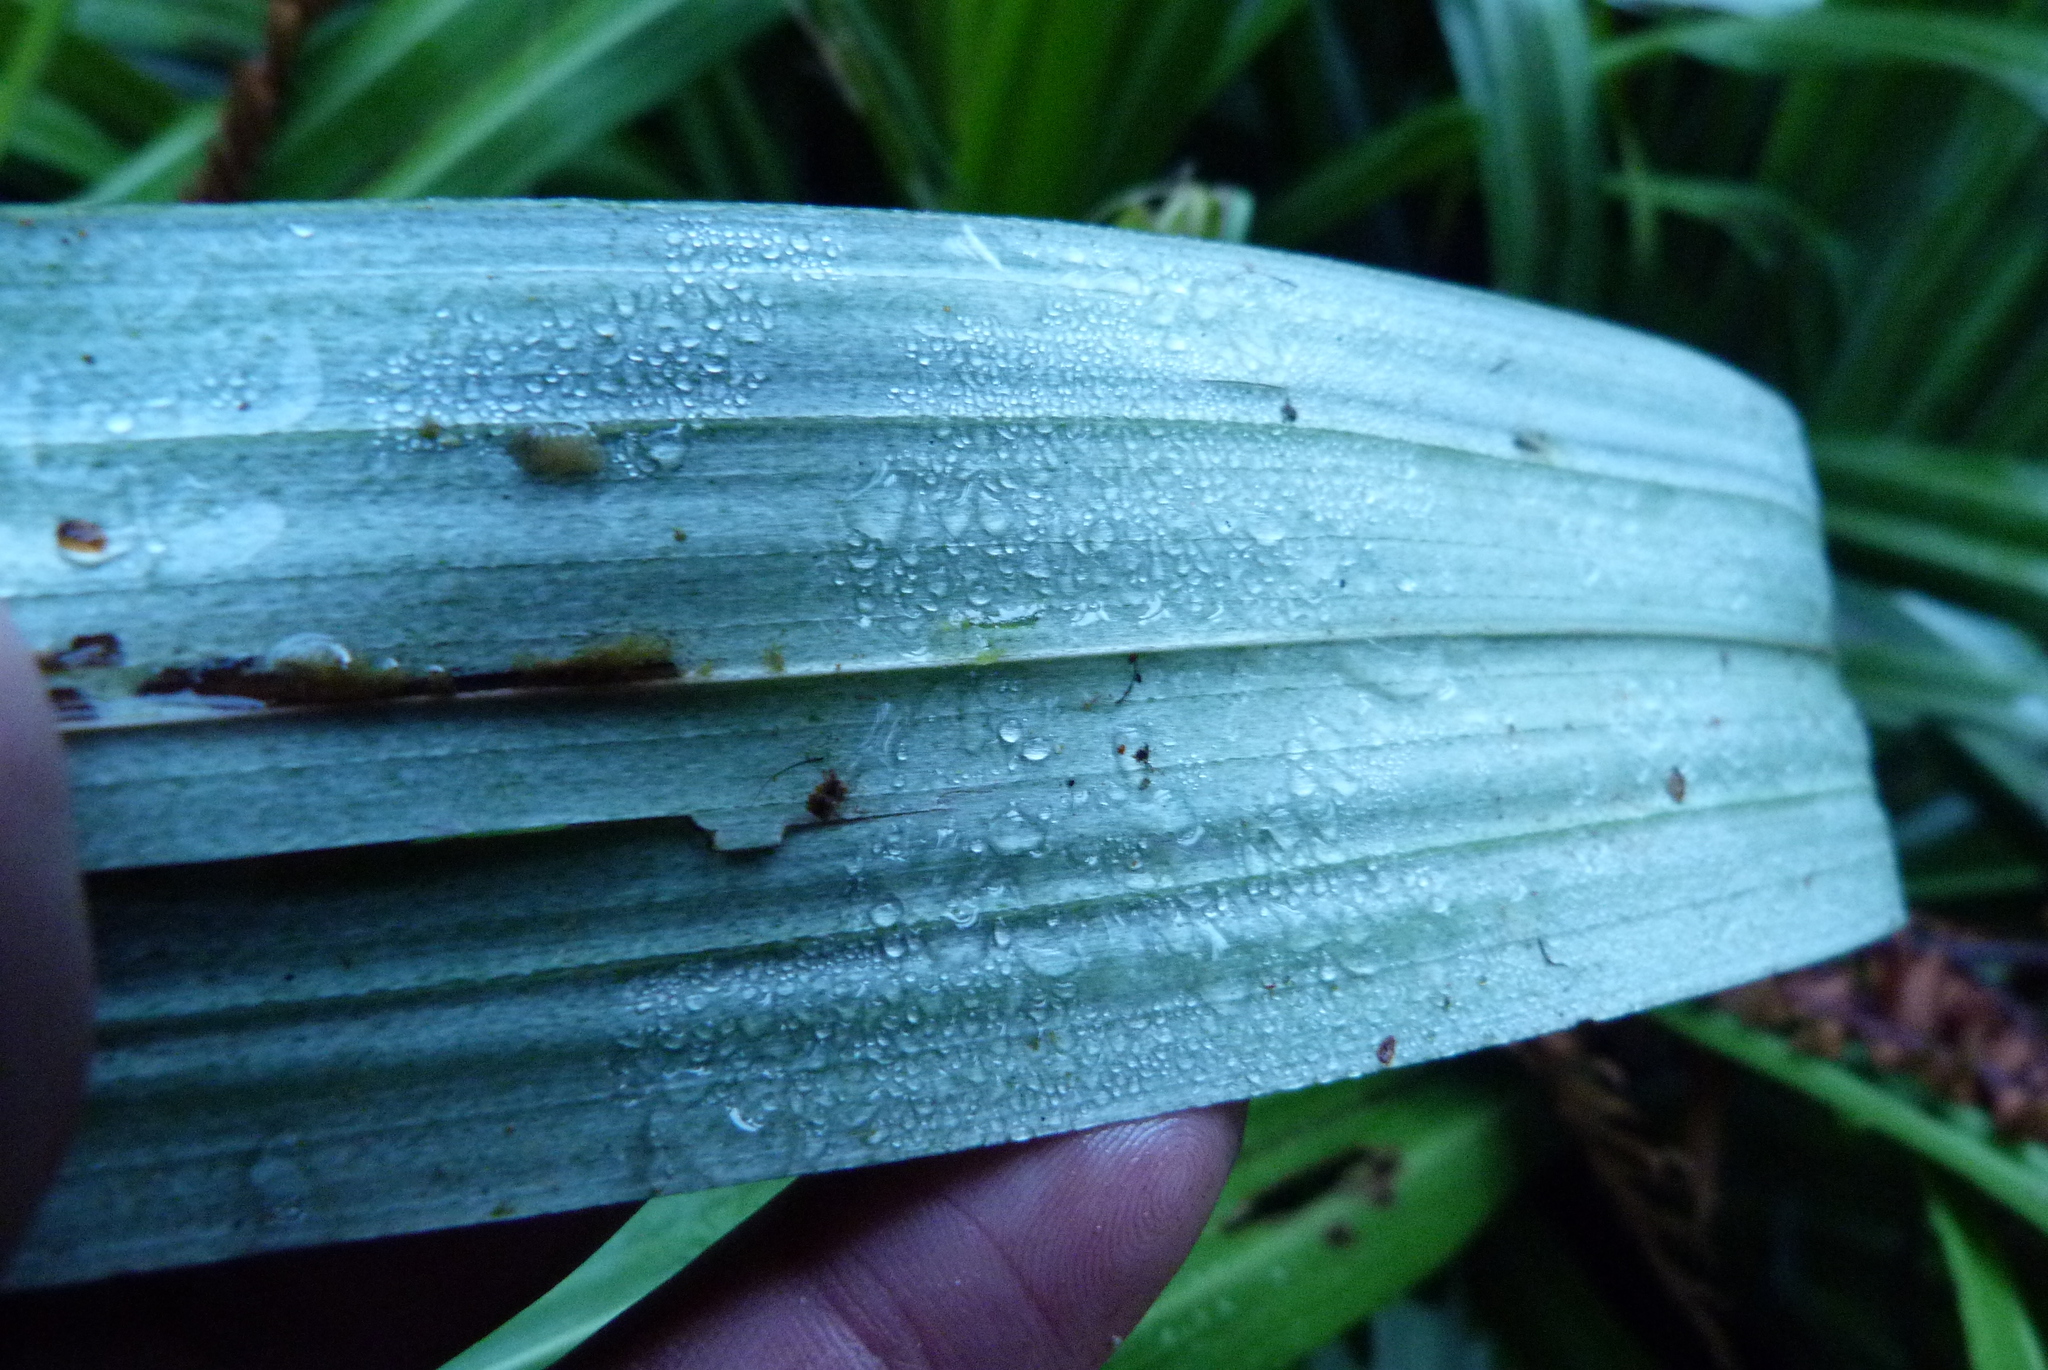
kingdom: Plantae
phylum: Tracheophyta
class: Liliopsida
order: Asparagales
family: Asteliaceae
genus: Astelia
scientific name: Astelia grandis
